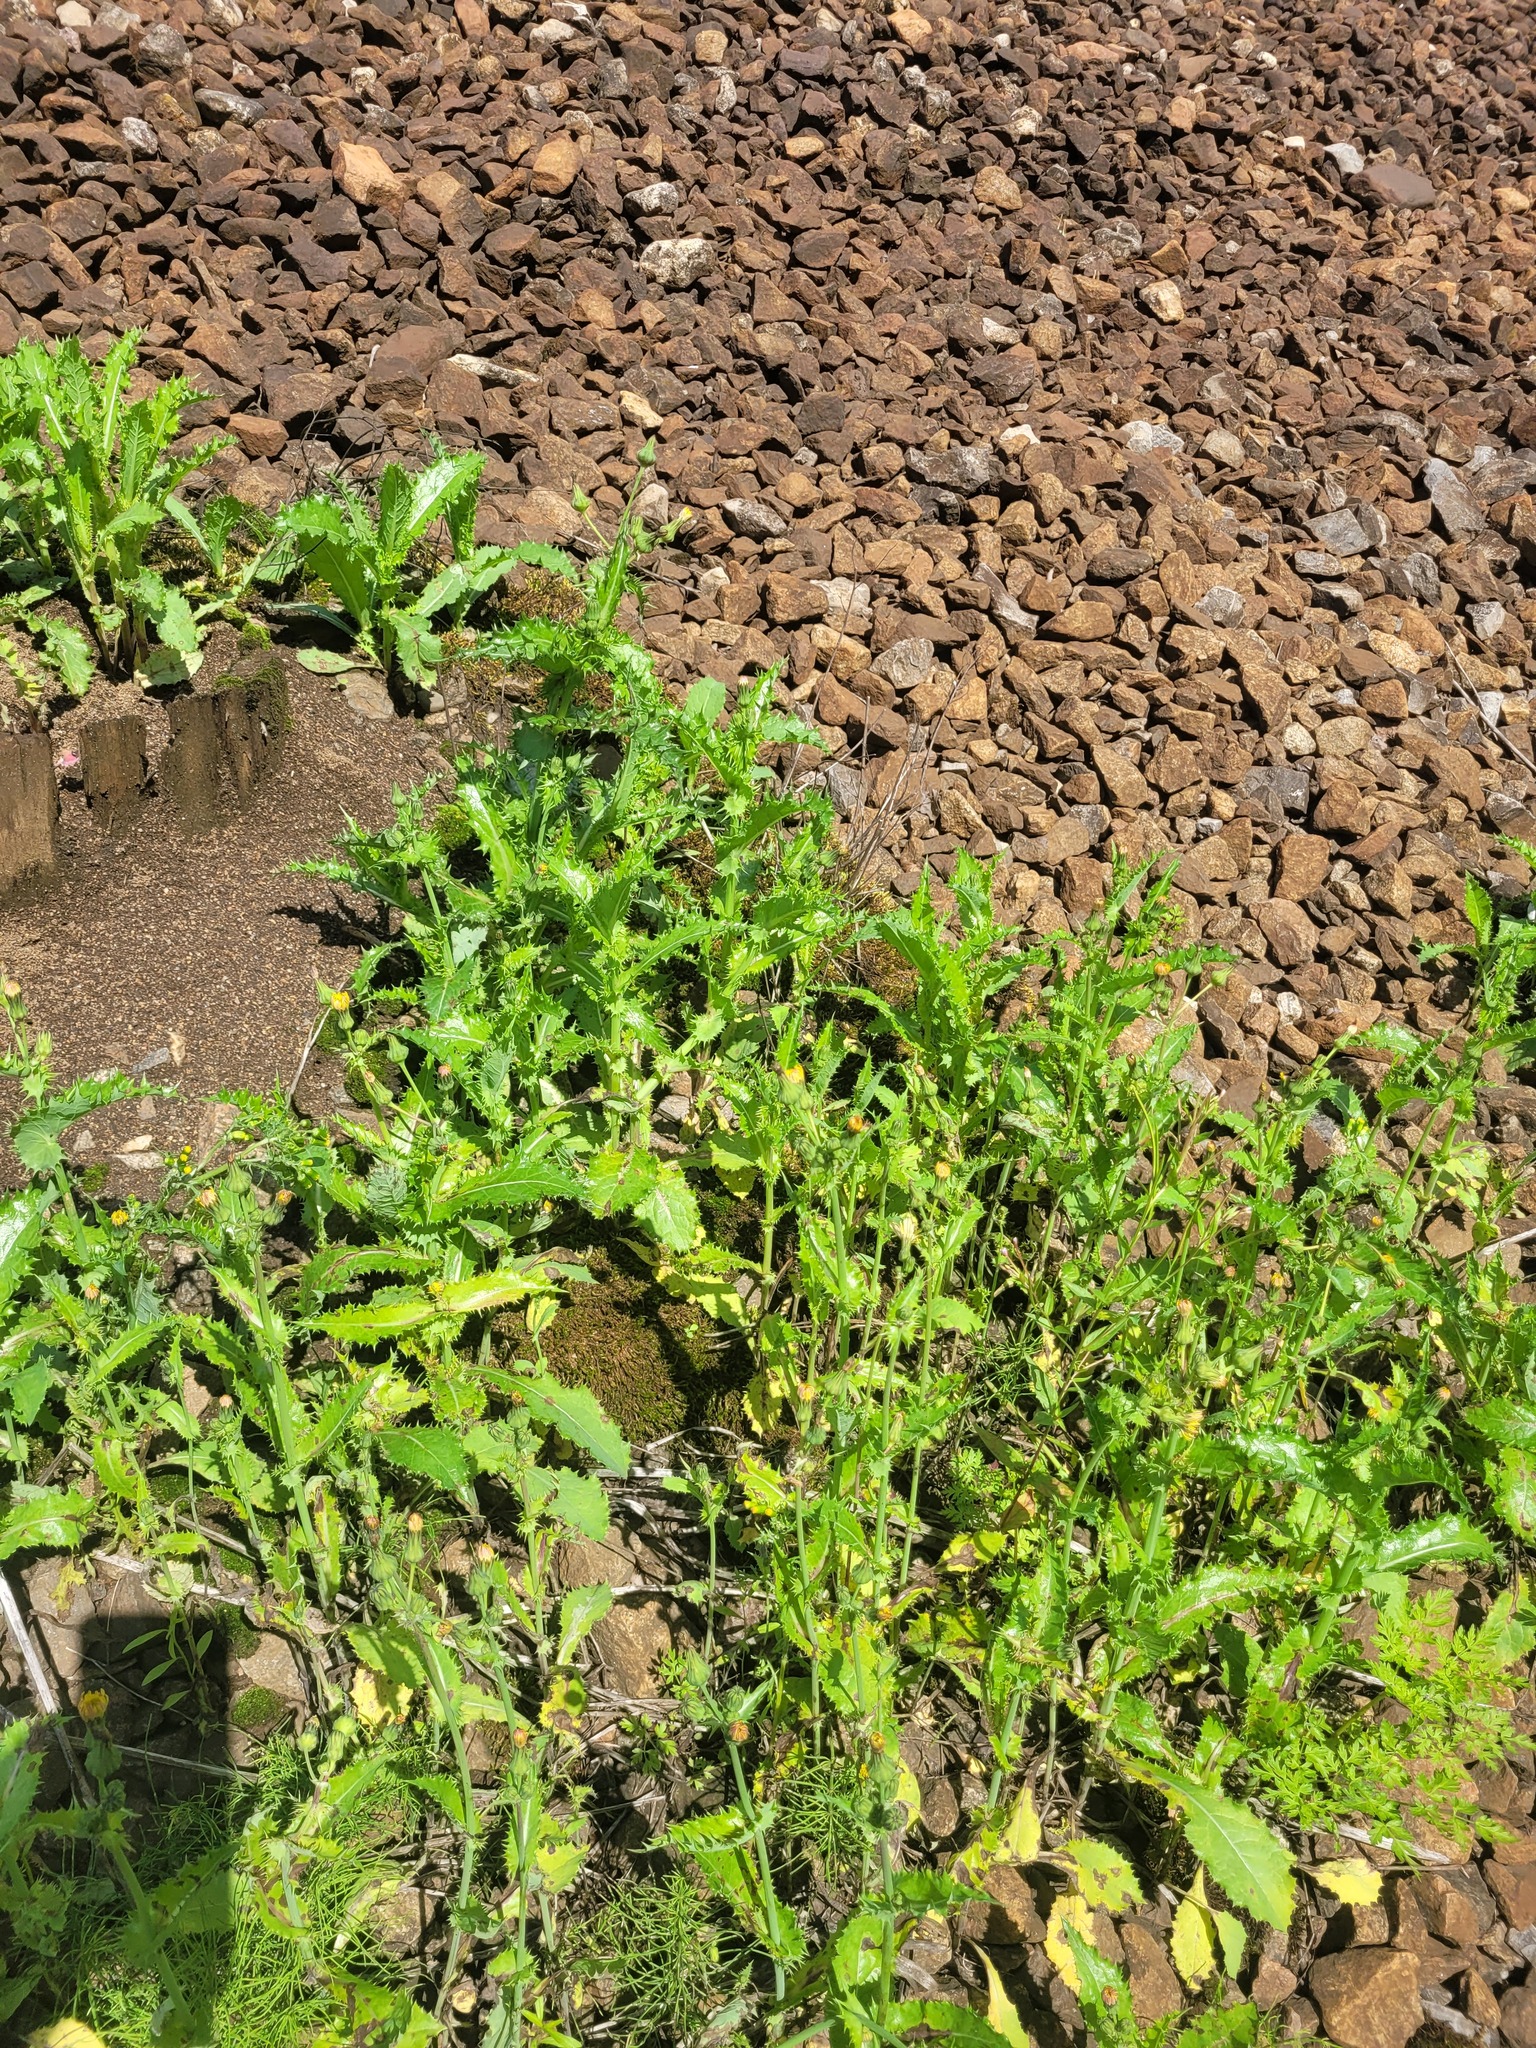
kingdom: Plantae
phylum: Tracheophyta
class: Magnoliopsida
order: Asterales
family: Asteraceae
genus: Sonchus
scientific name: Sonchus asper
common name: Prickly sow-thistle
